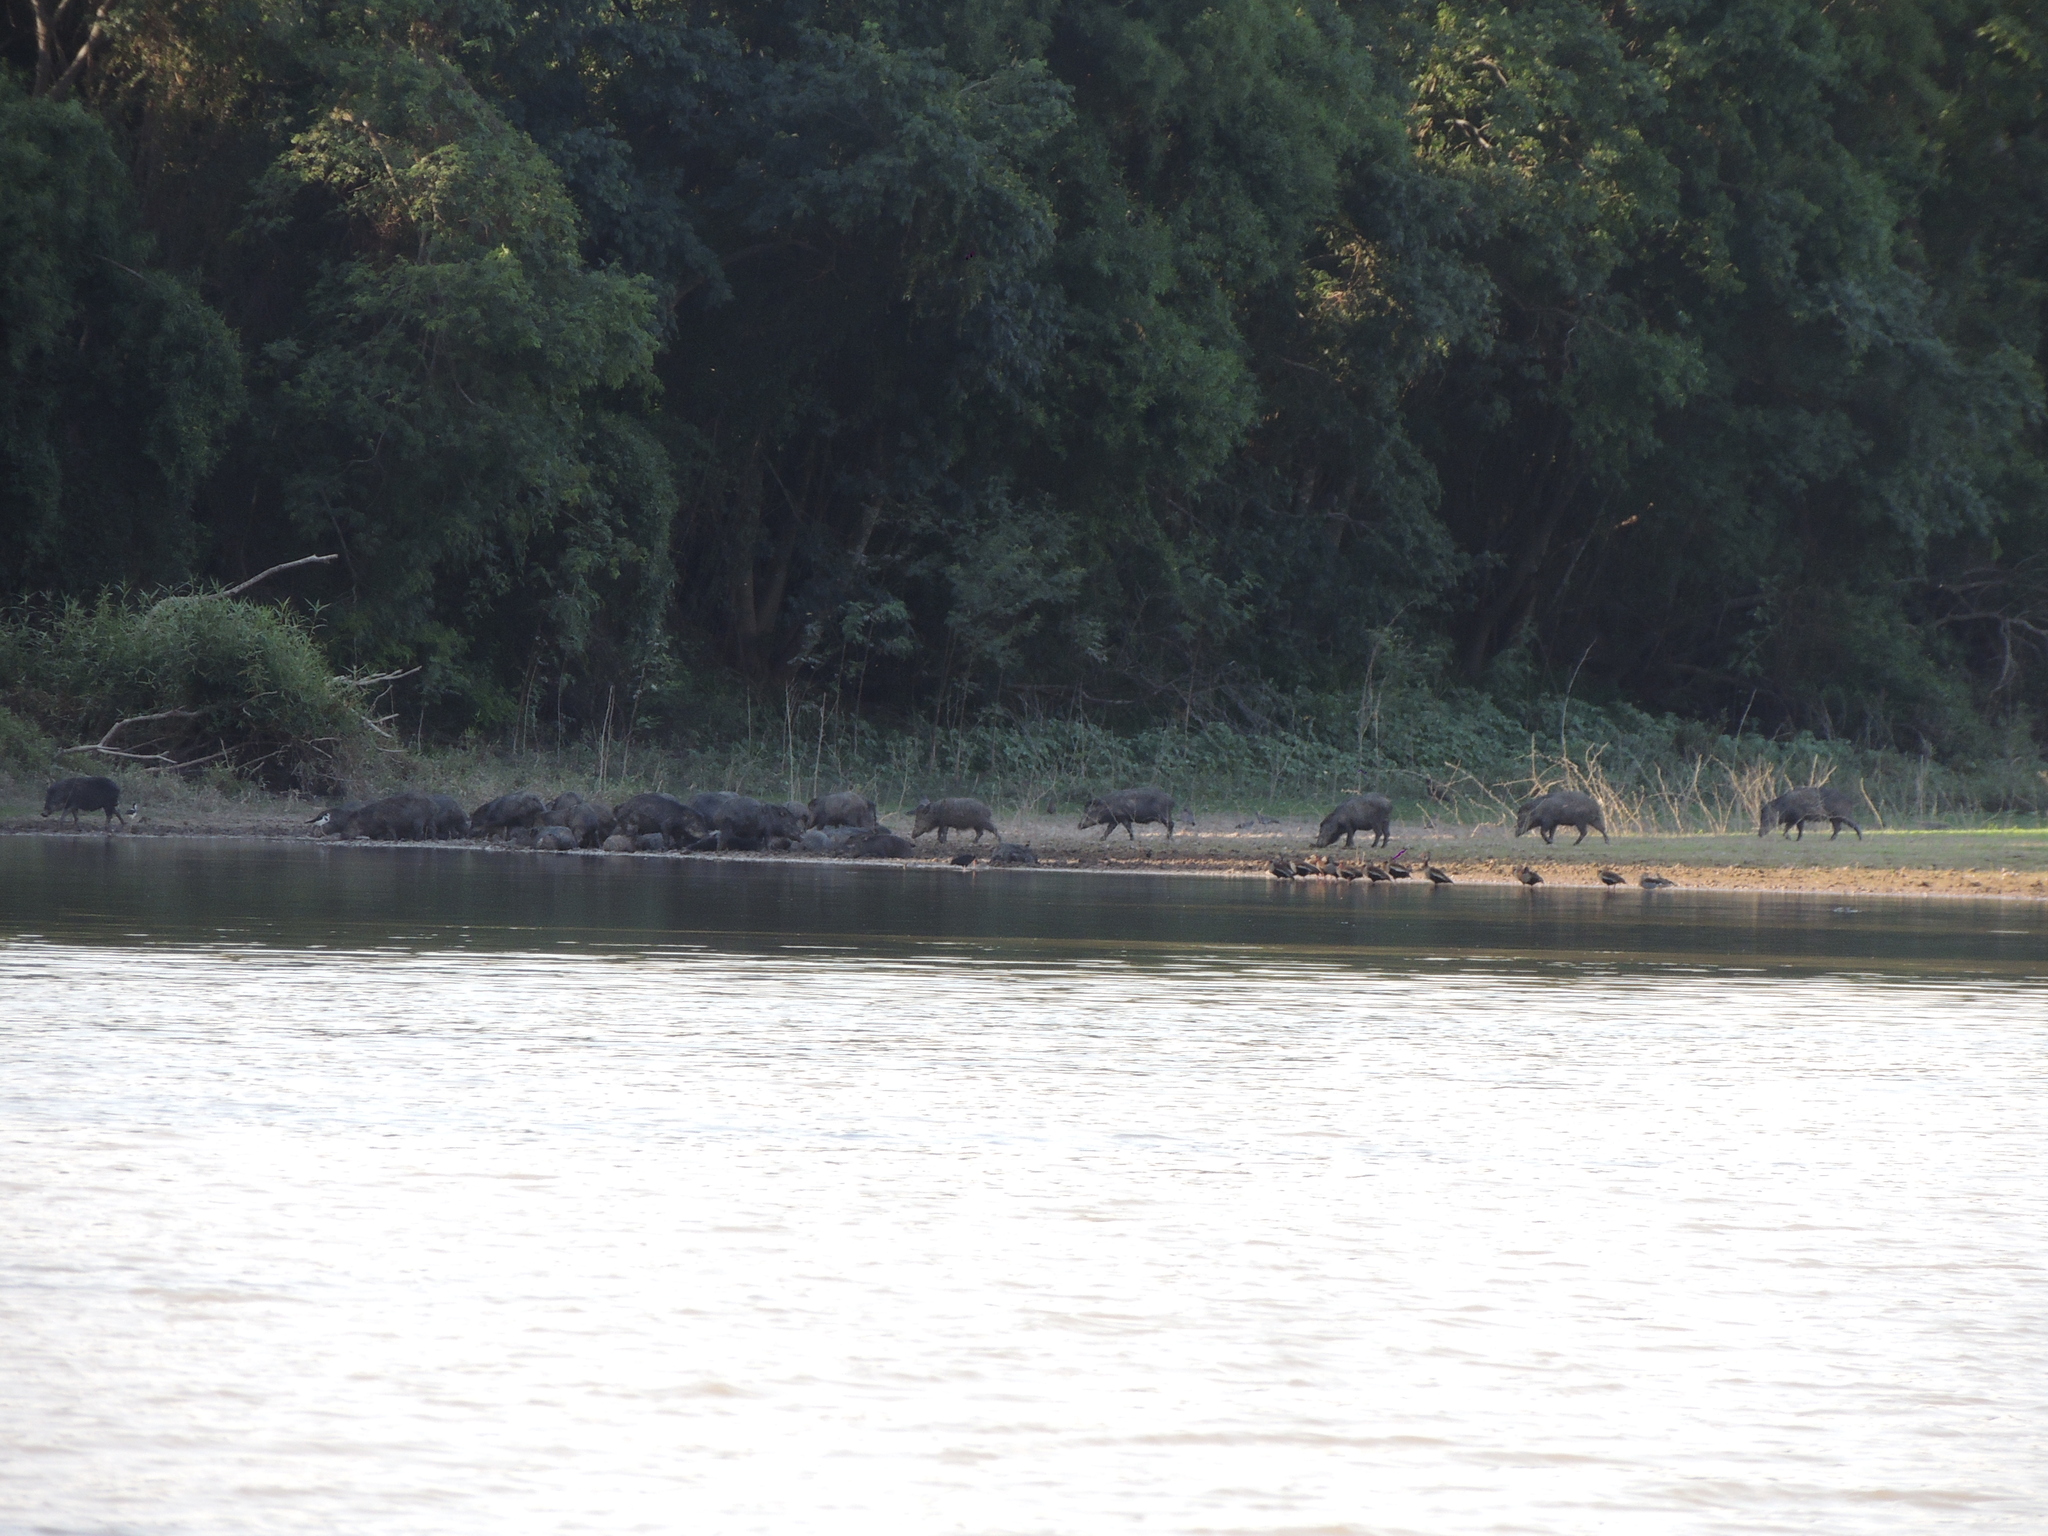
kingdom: Animalia
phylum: Chordata
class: Mammalia
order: Artiodactyla
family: Tayassuidae
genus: Tayassu
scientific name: Tayassu pecari
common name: White-lipped peccary
